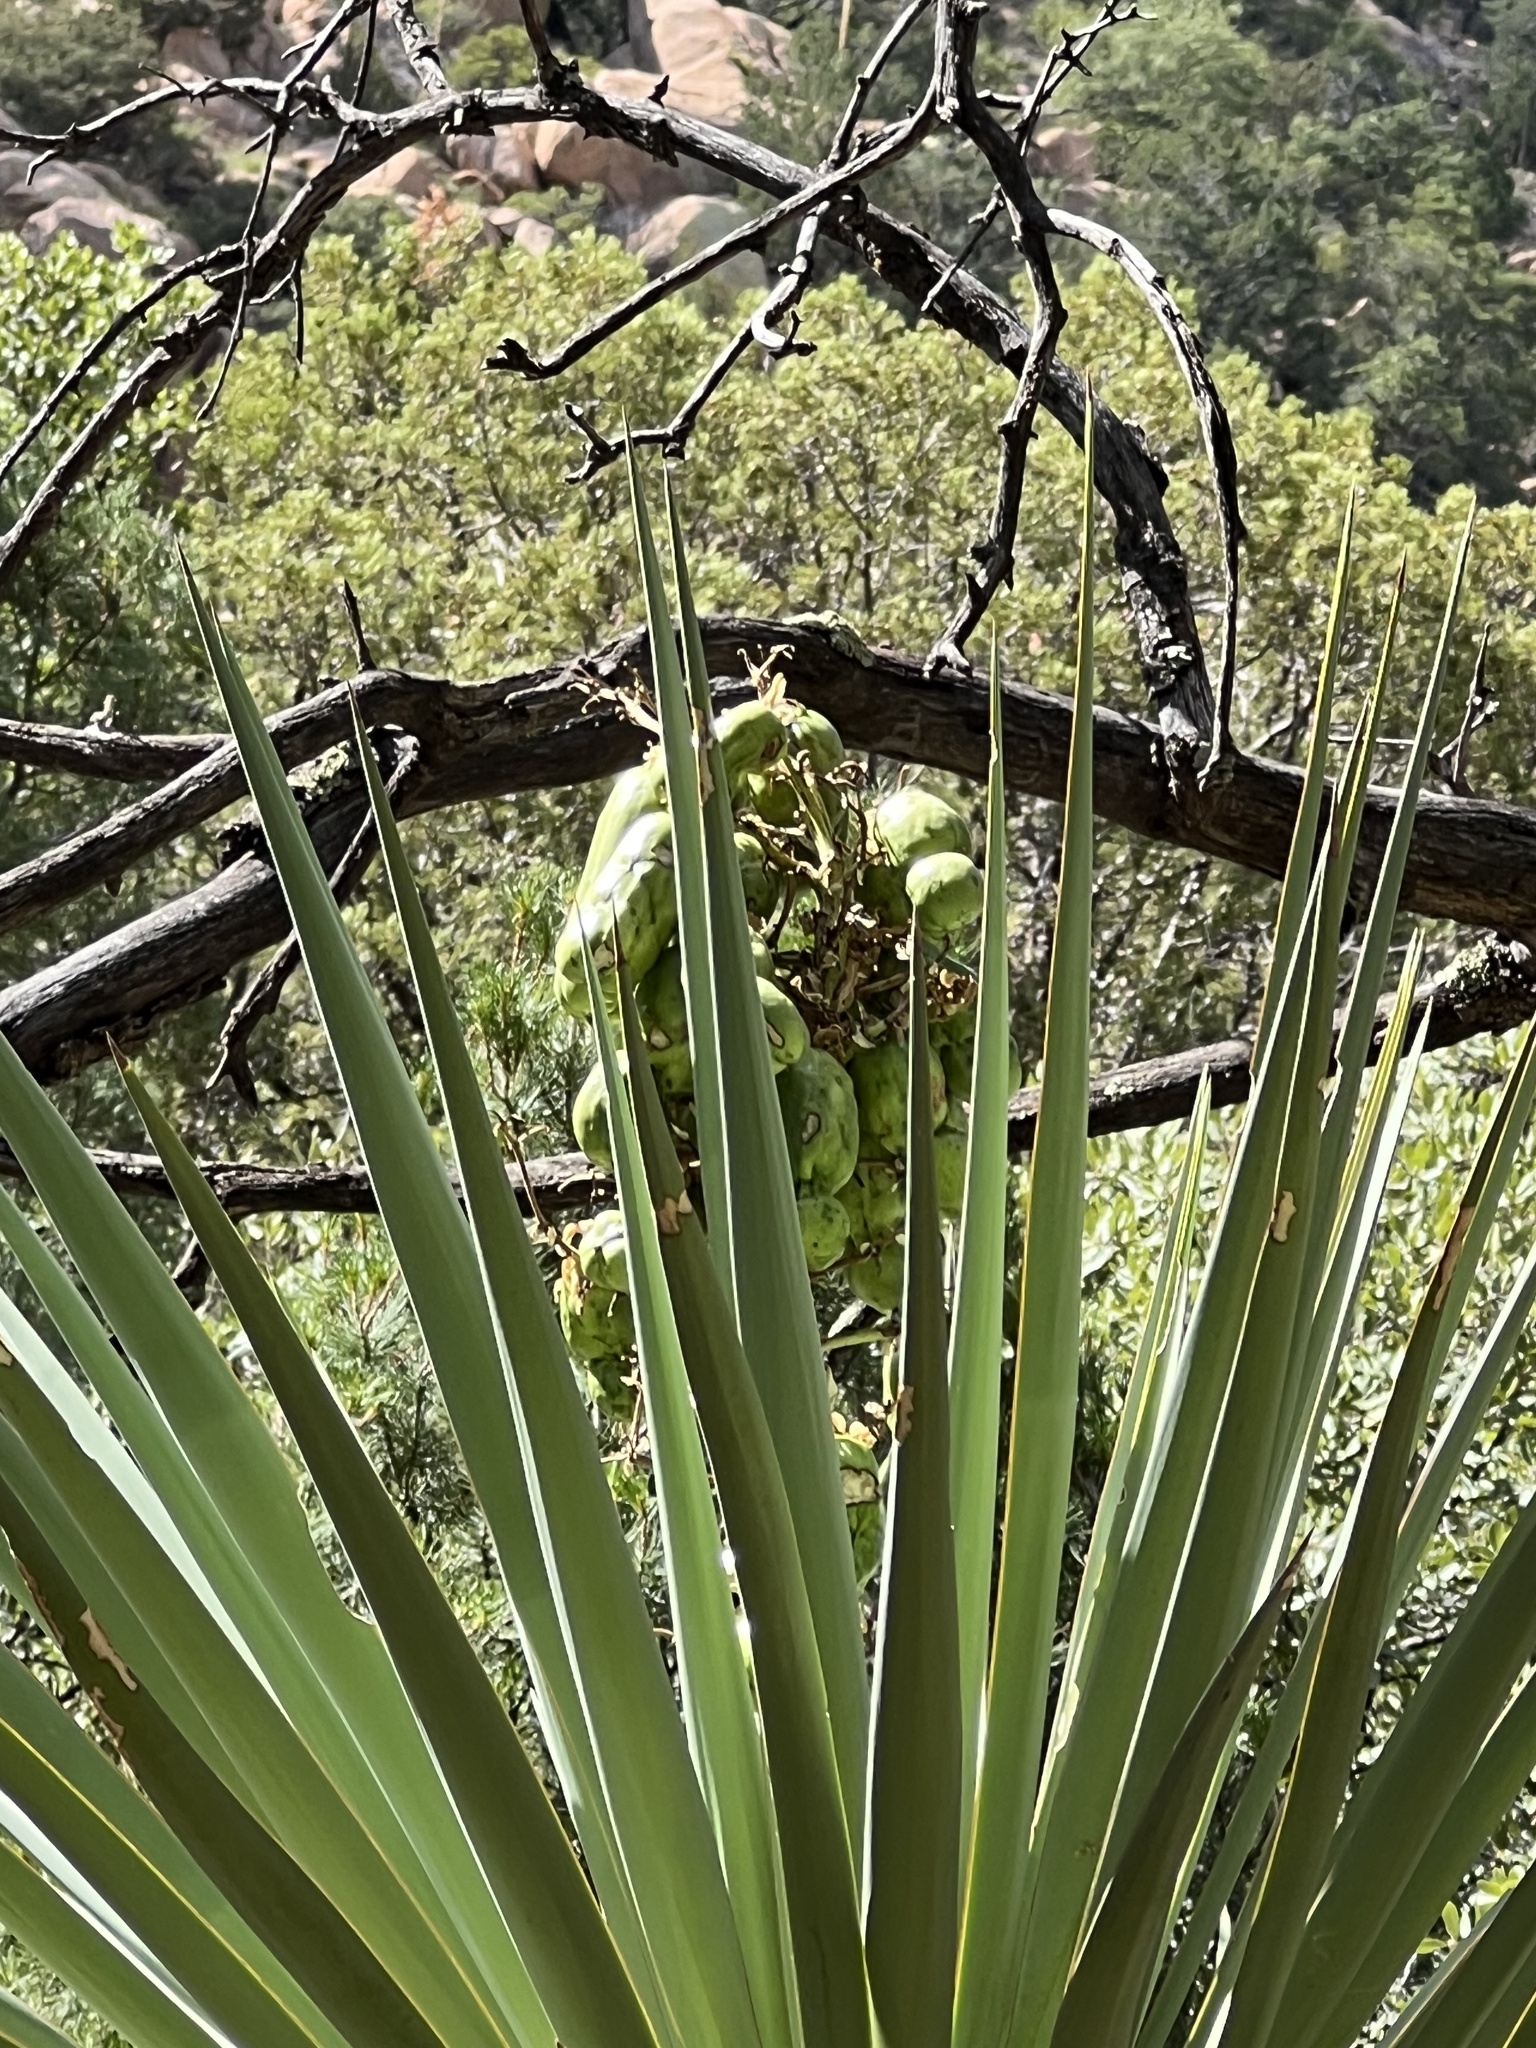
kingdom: Plantae
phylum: Tracheophyta
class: Liliopsida
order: Asparagales
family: Asparagaceae
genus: Yucca
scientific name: Yucca schottii
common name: Hoary yucca
